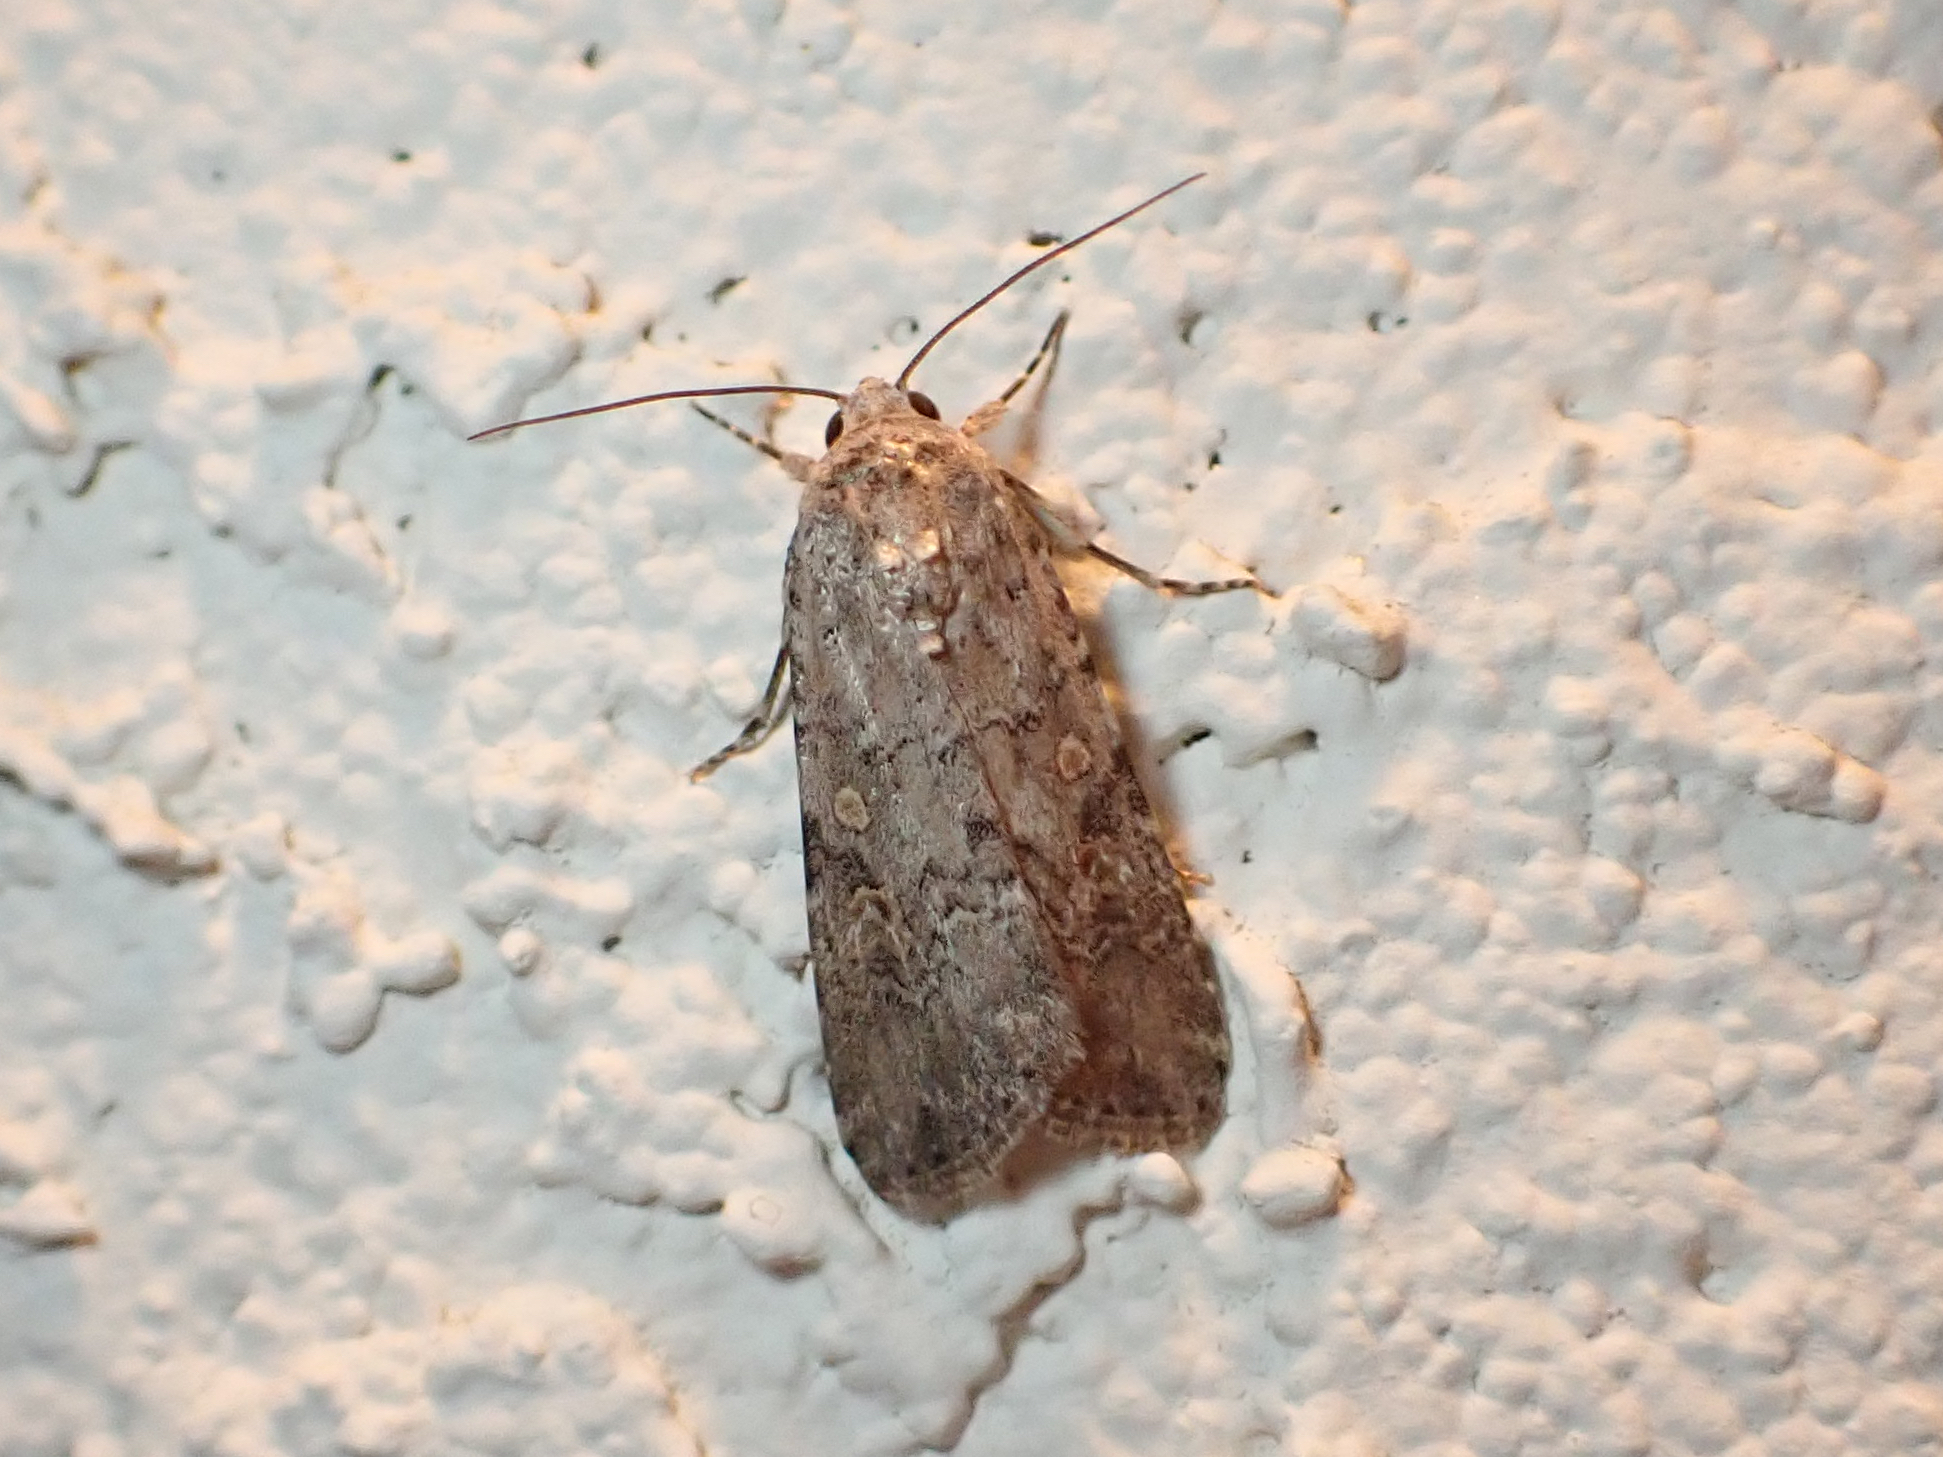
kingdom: Animalia
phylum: Arthropoda
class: Insecta
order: Lepidoptera
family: Noctuidae
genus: Spodoptera
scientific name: Spodoptera exigua
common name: Beet armyworm
